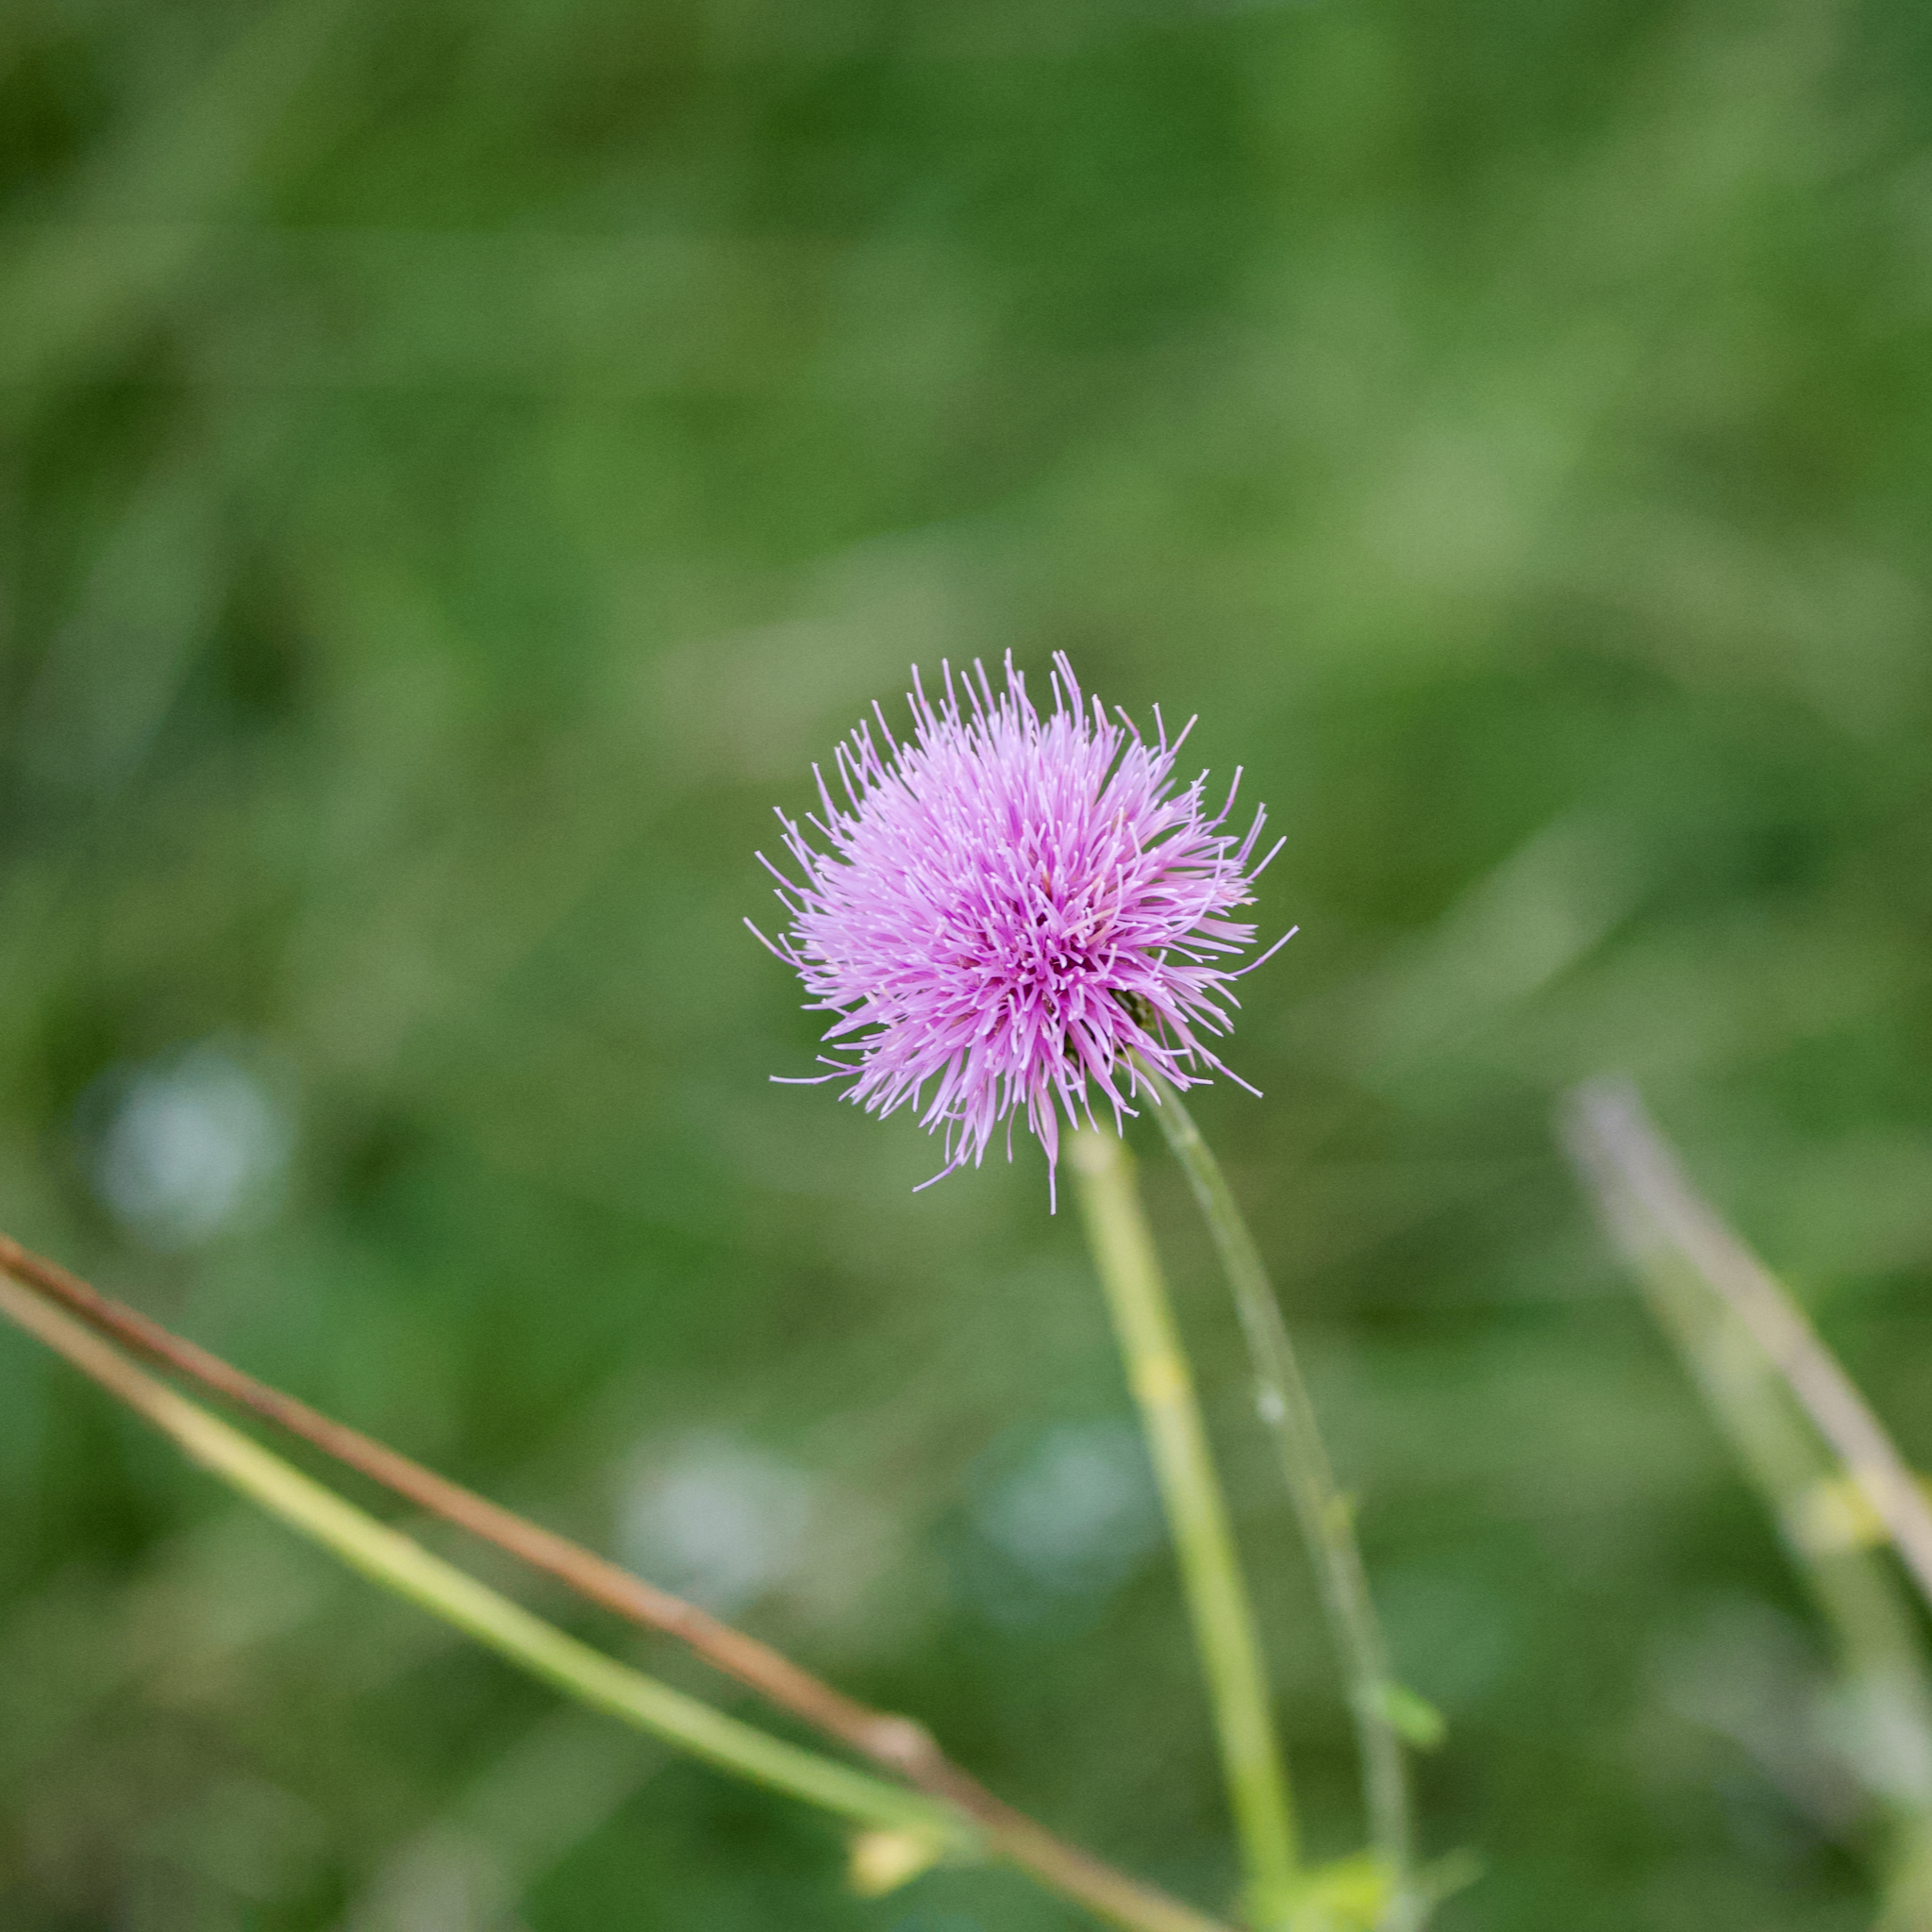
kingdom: Plantae
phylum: Tracheophyta
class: Magnoliopsida
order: Asterales
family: Asteraceae
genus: Cirsium
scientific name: Cirsium texanum
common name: Texas purple thistle
